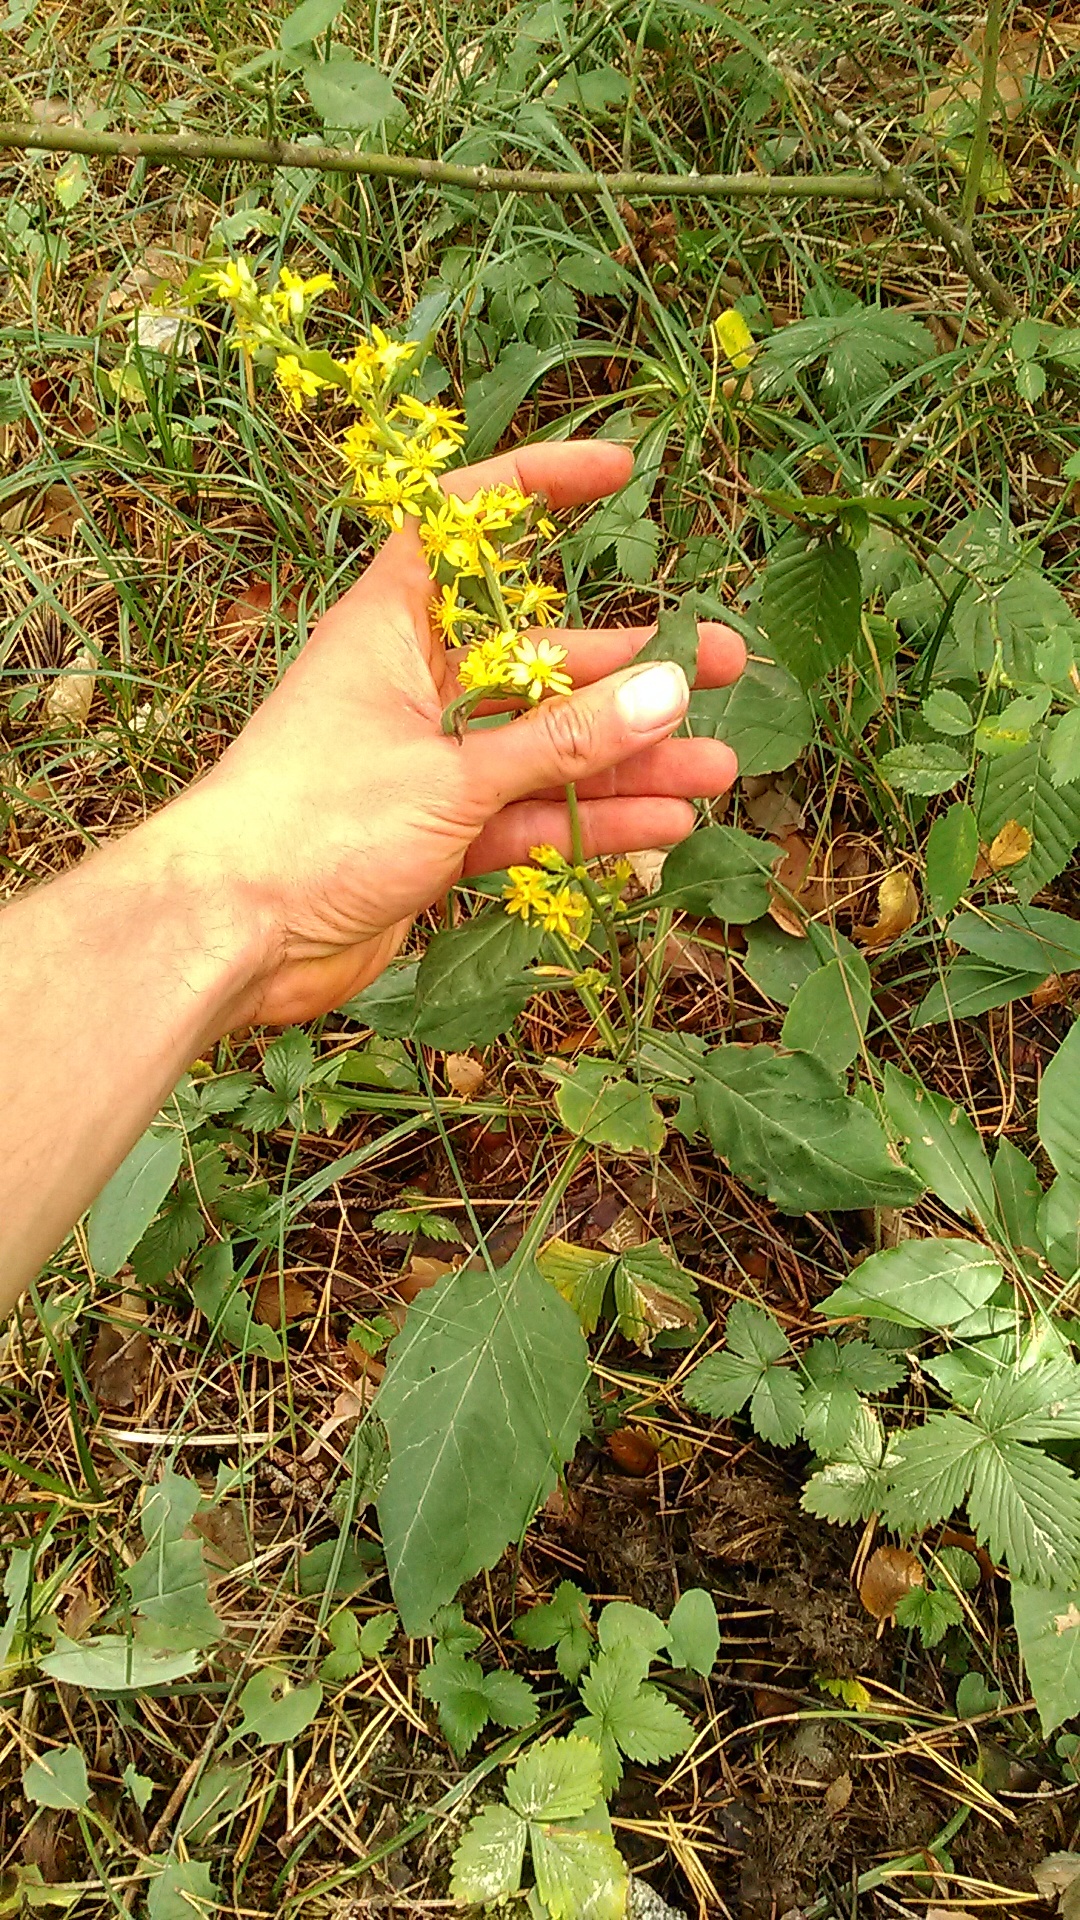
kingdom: Plantae
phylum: Tracheophyta
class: Magnoliopsida
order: Asterales
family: Asteraceae
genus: Solidago
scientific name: Solidago virgaurea
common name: Goldenrod
